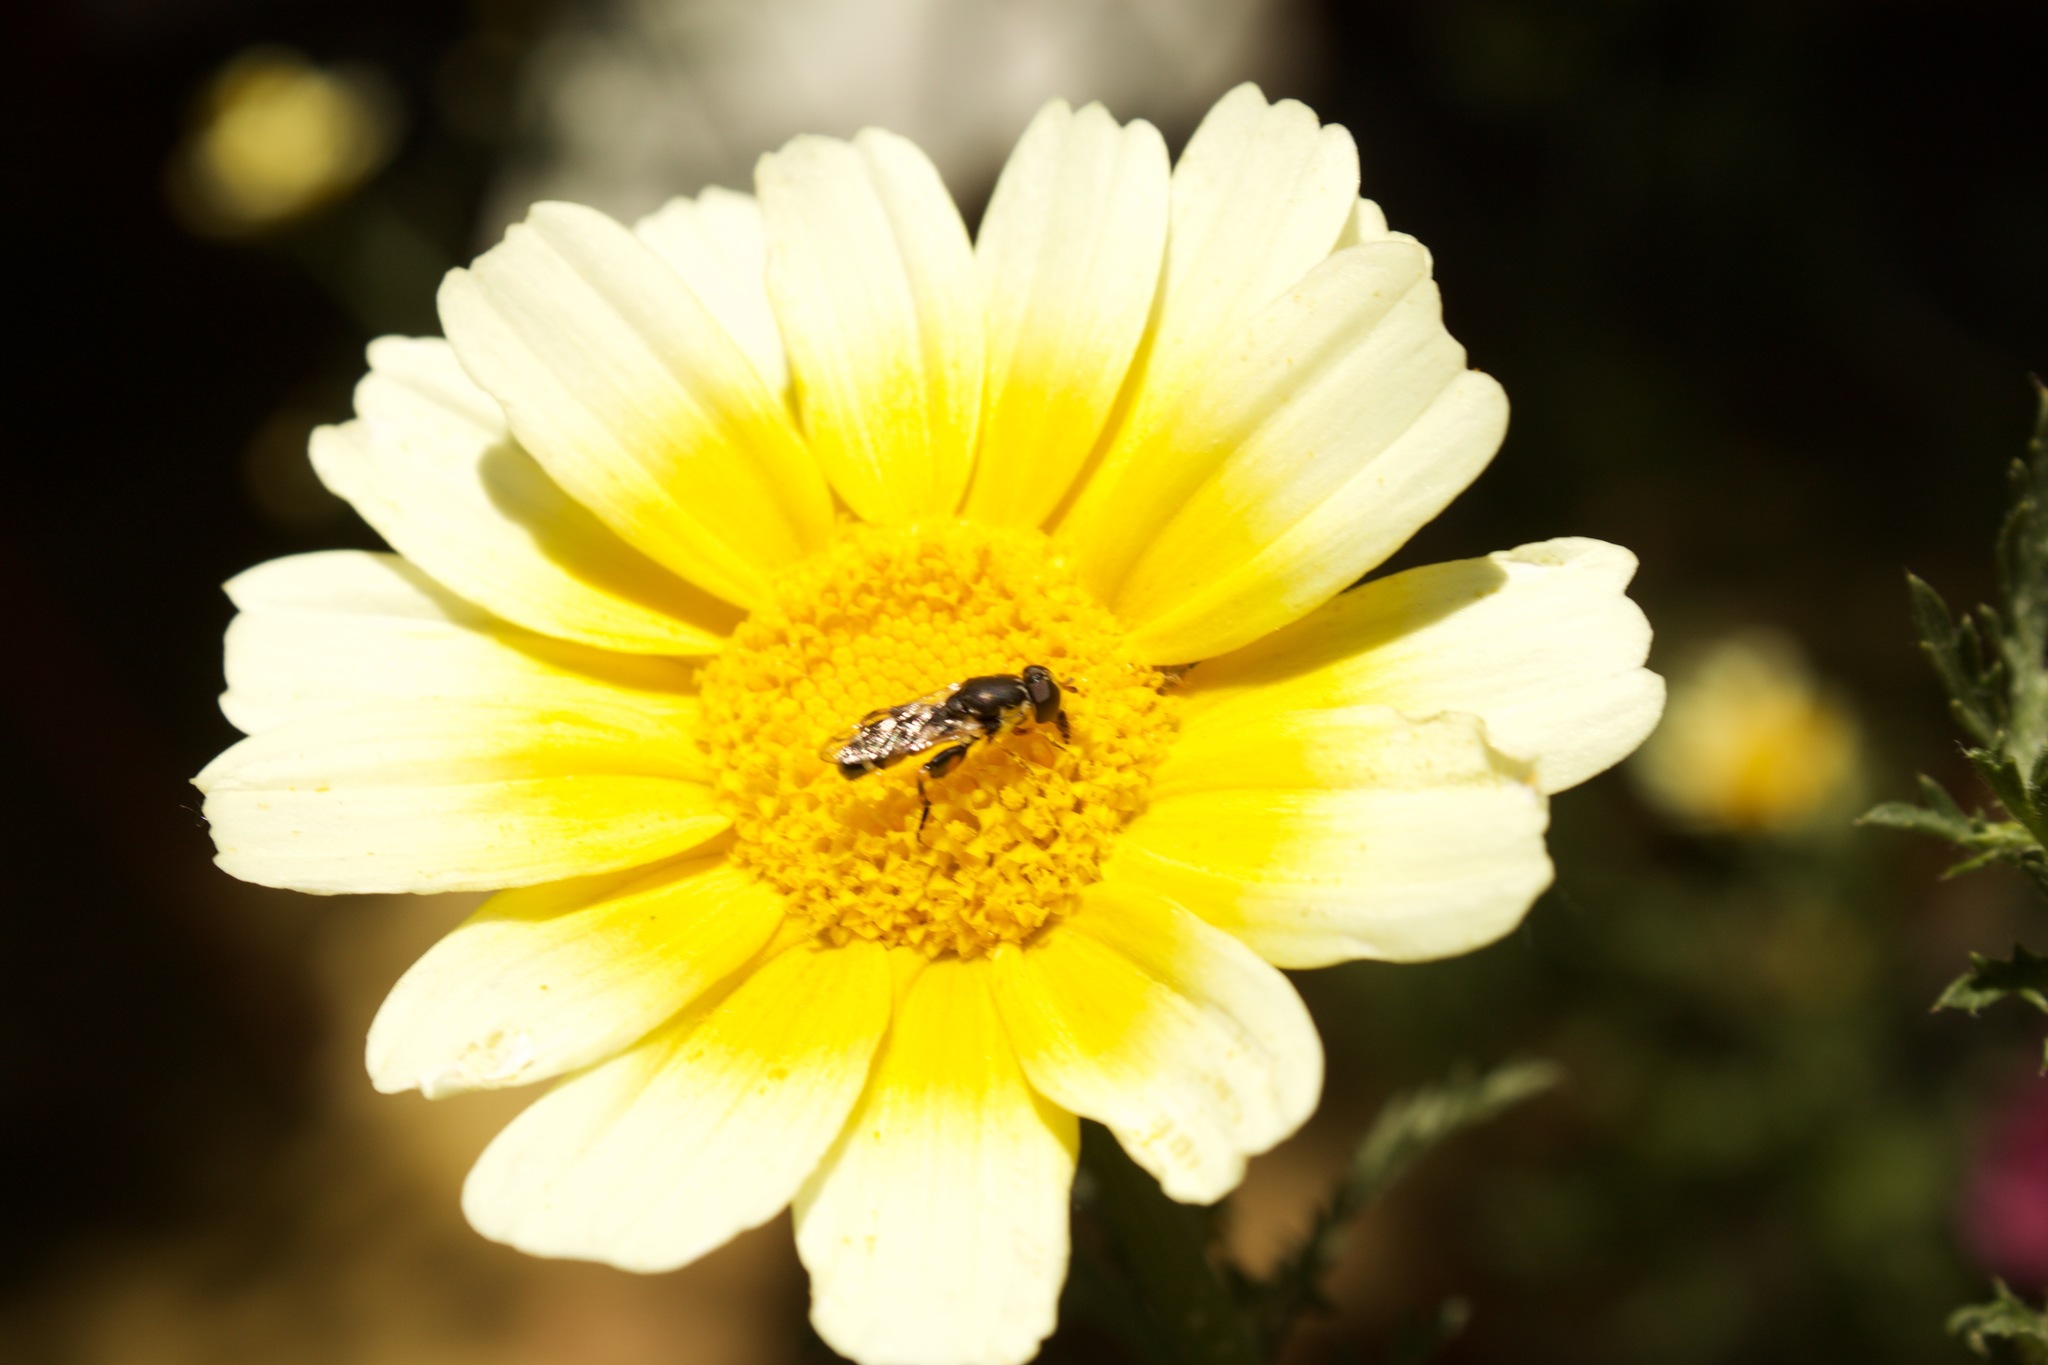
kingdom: Animalia
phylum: Arthropoda
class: Insecta
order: Diptera
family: Syrphidae
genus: Syritta
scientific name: Syritta pipiens
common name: Hover fly
